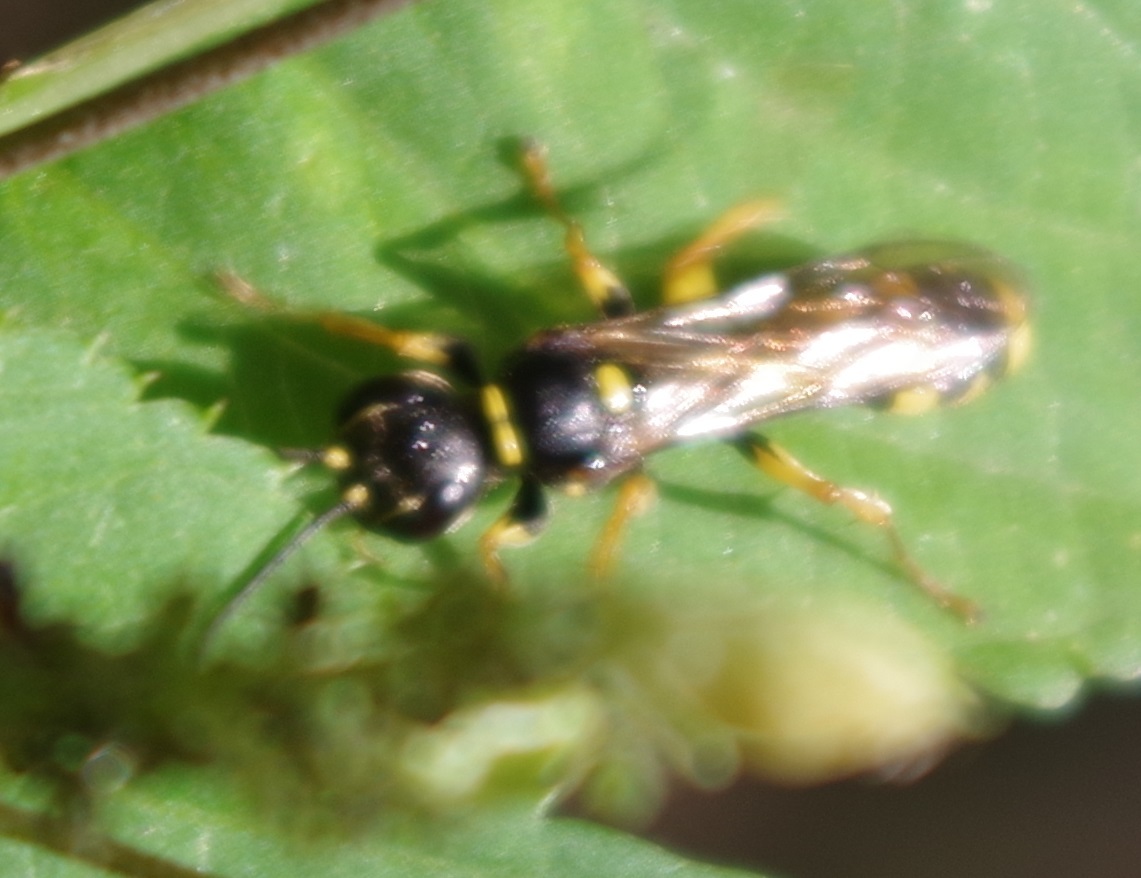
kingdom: Animalia
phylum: Arthropoda
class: Insecta
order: Hymenoptera
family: Crabronidae
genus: Mellinus
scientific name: Mellinus arvensis
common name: Field digger wasp
